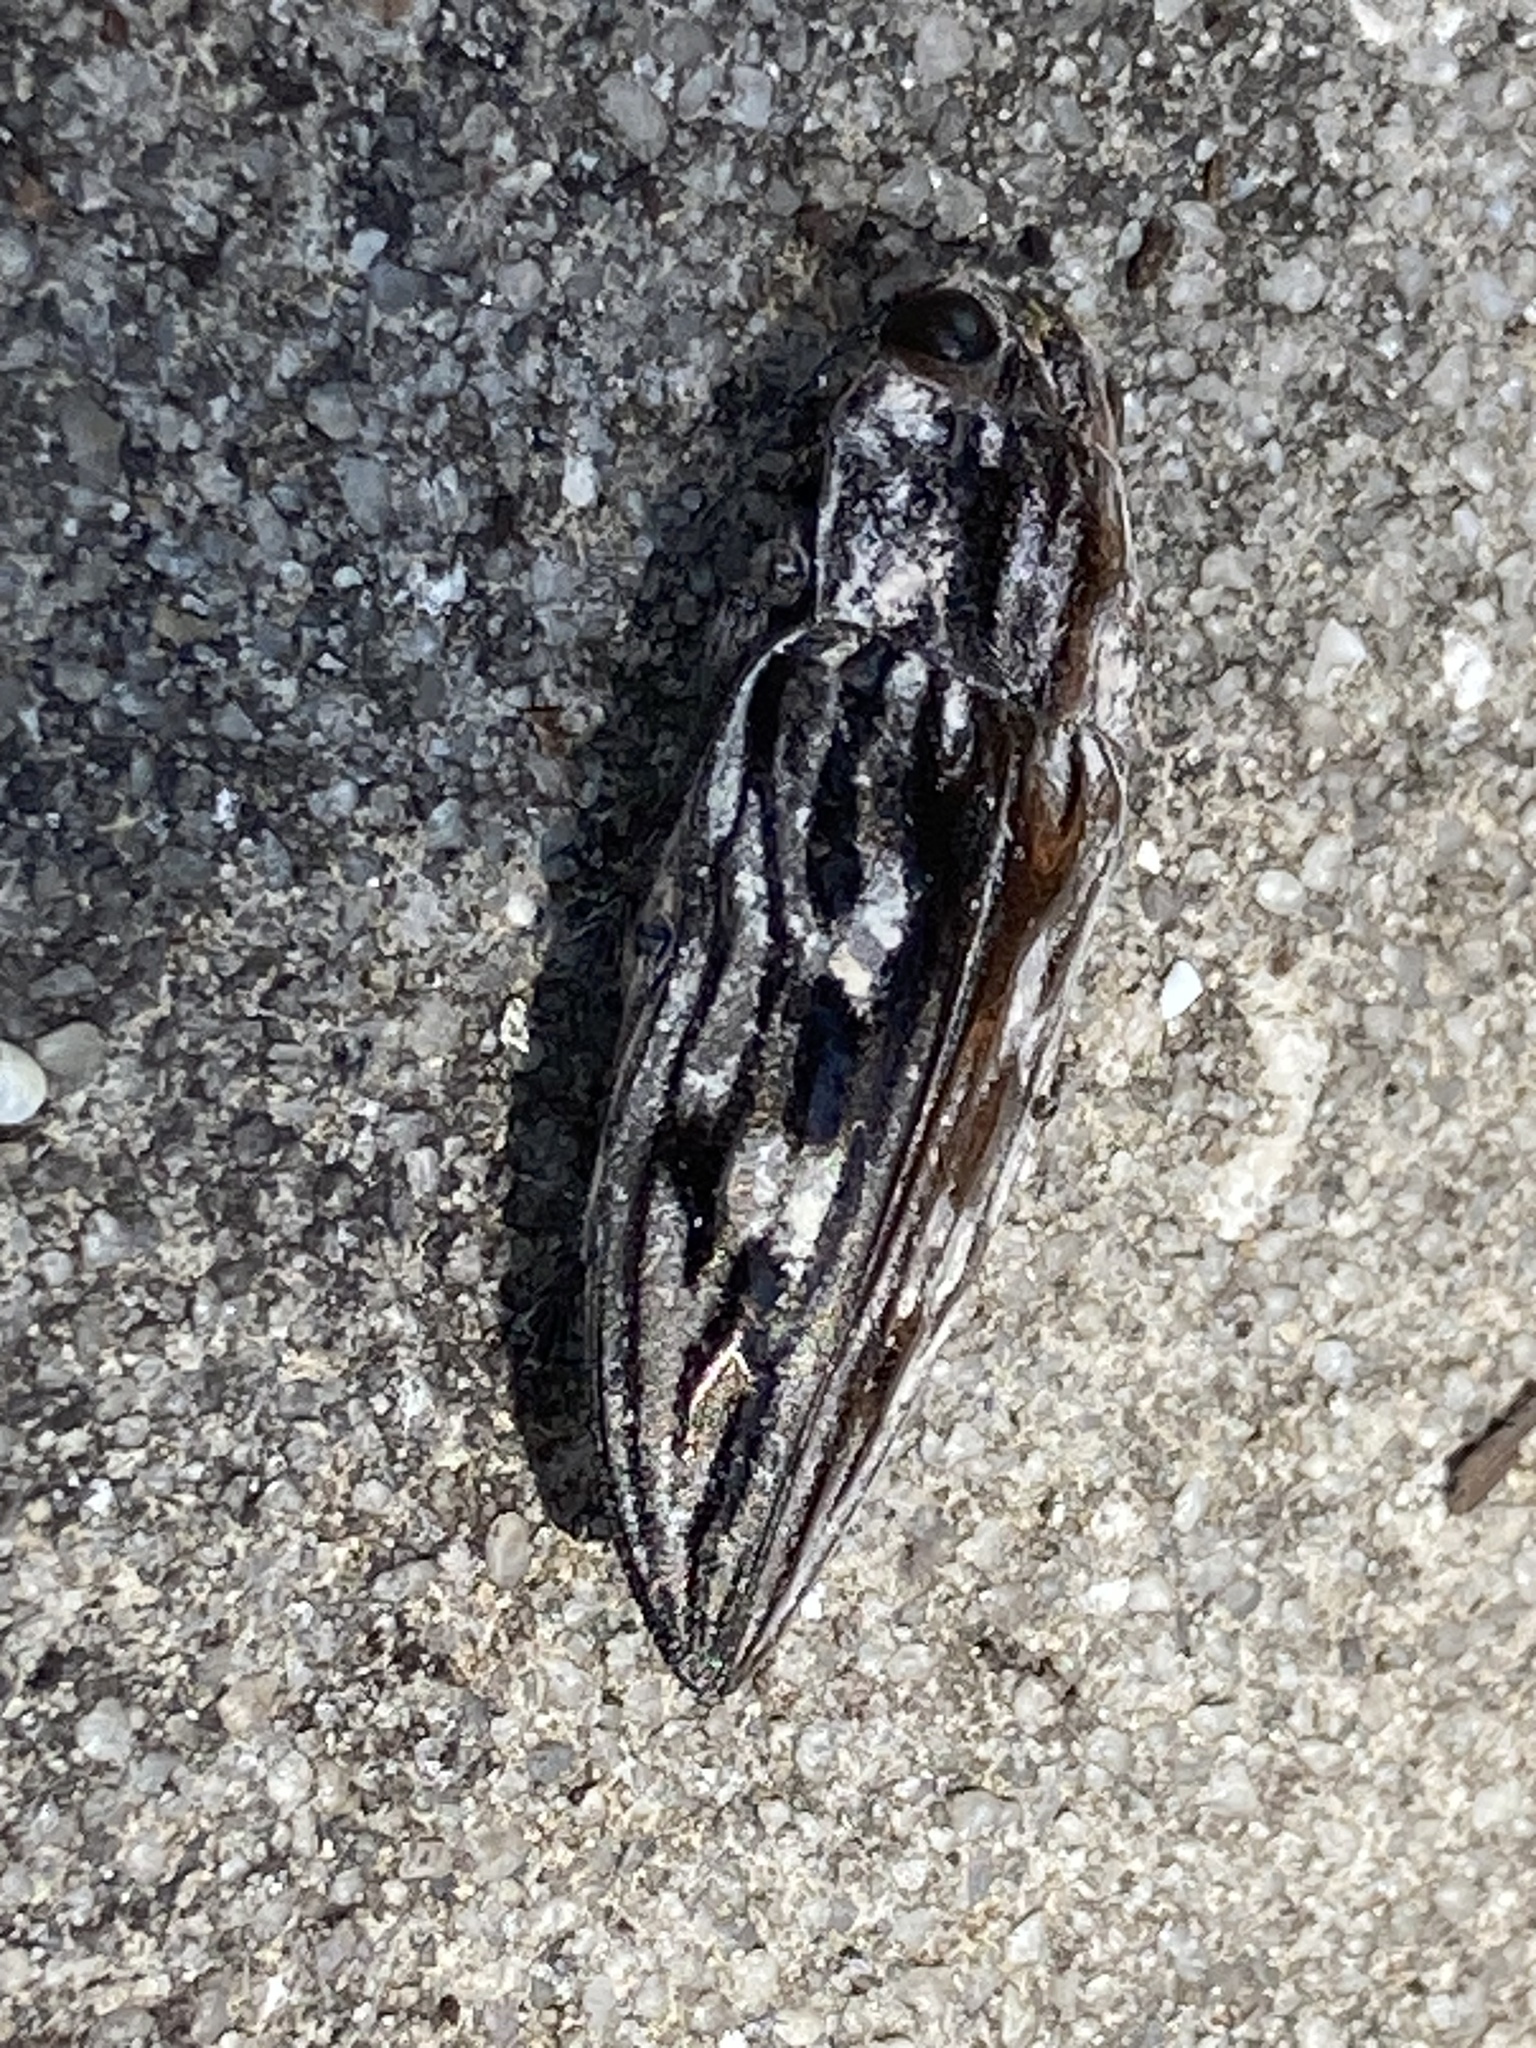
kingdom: Animalia
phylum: Arthropoda
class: Insecta
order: Coleoptera
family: Buprestidae
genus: Chalcophora
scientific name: Chalcophora virginiensis
